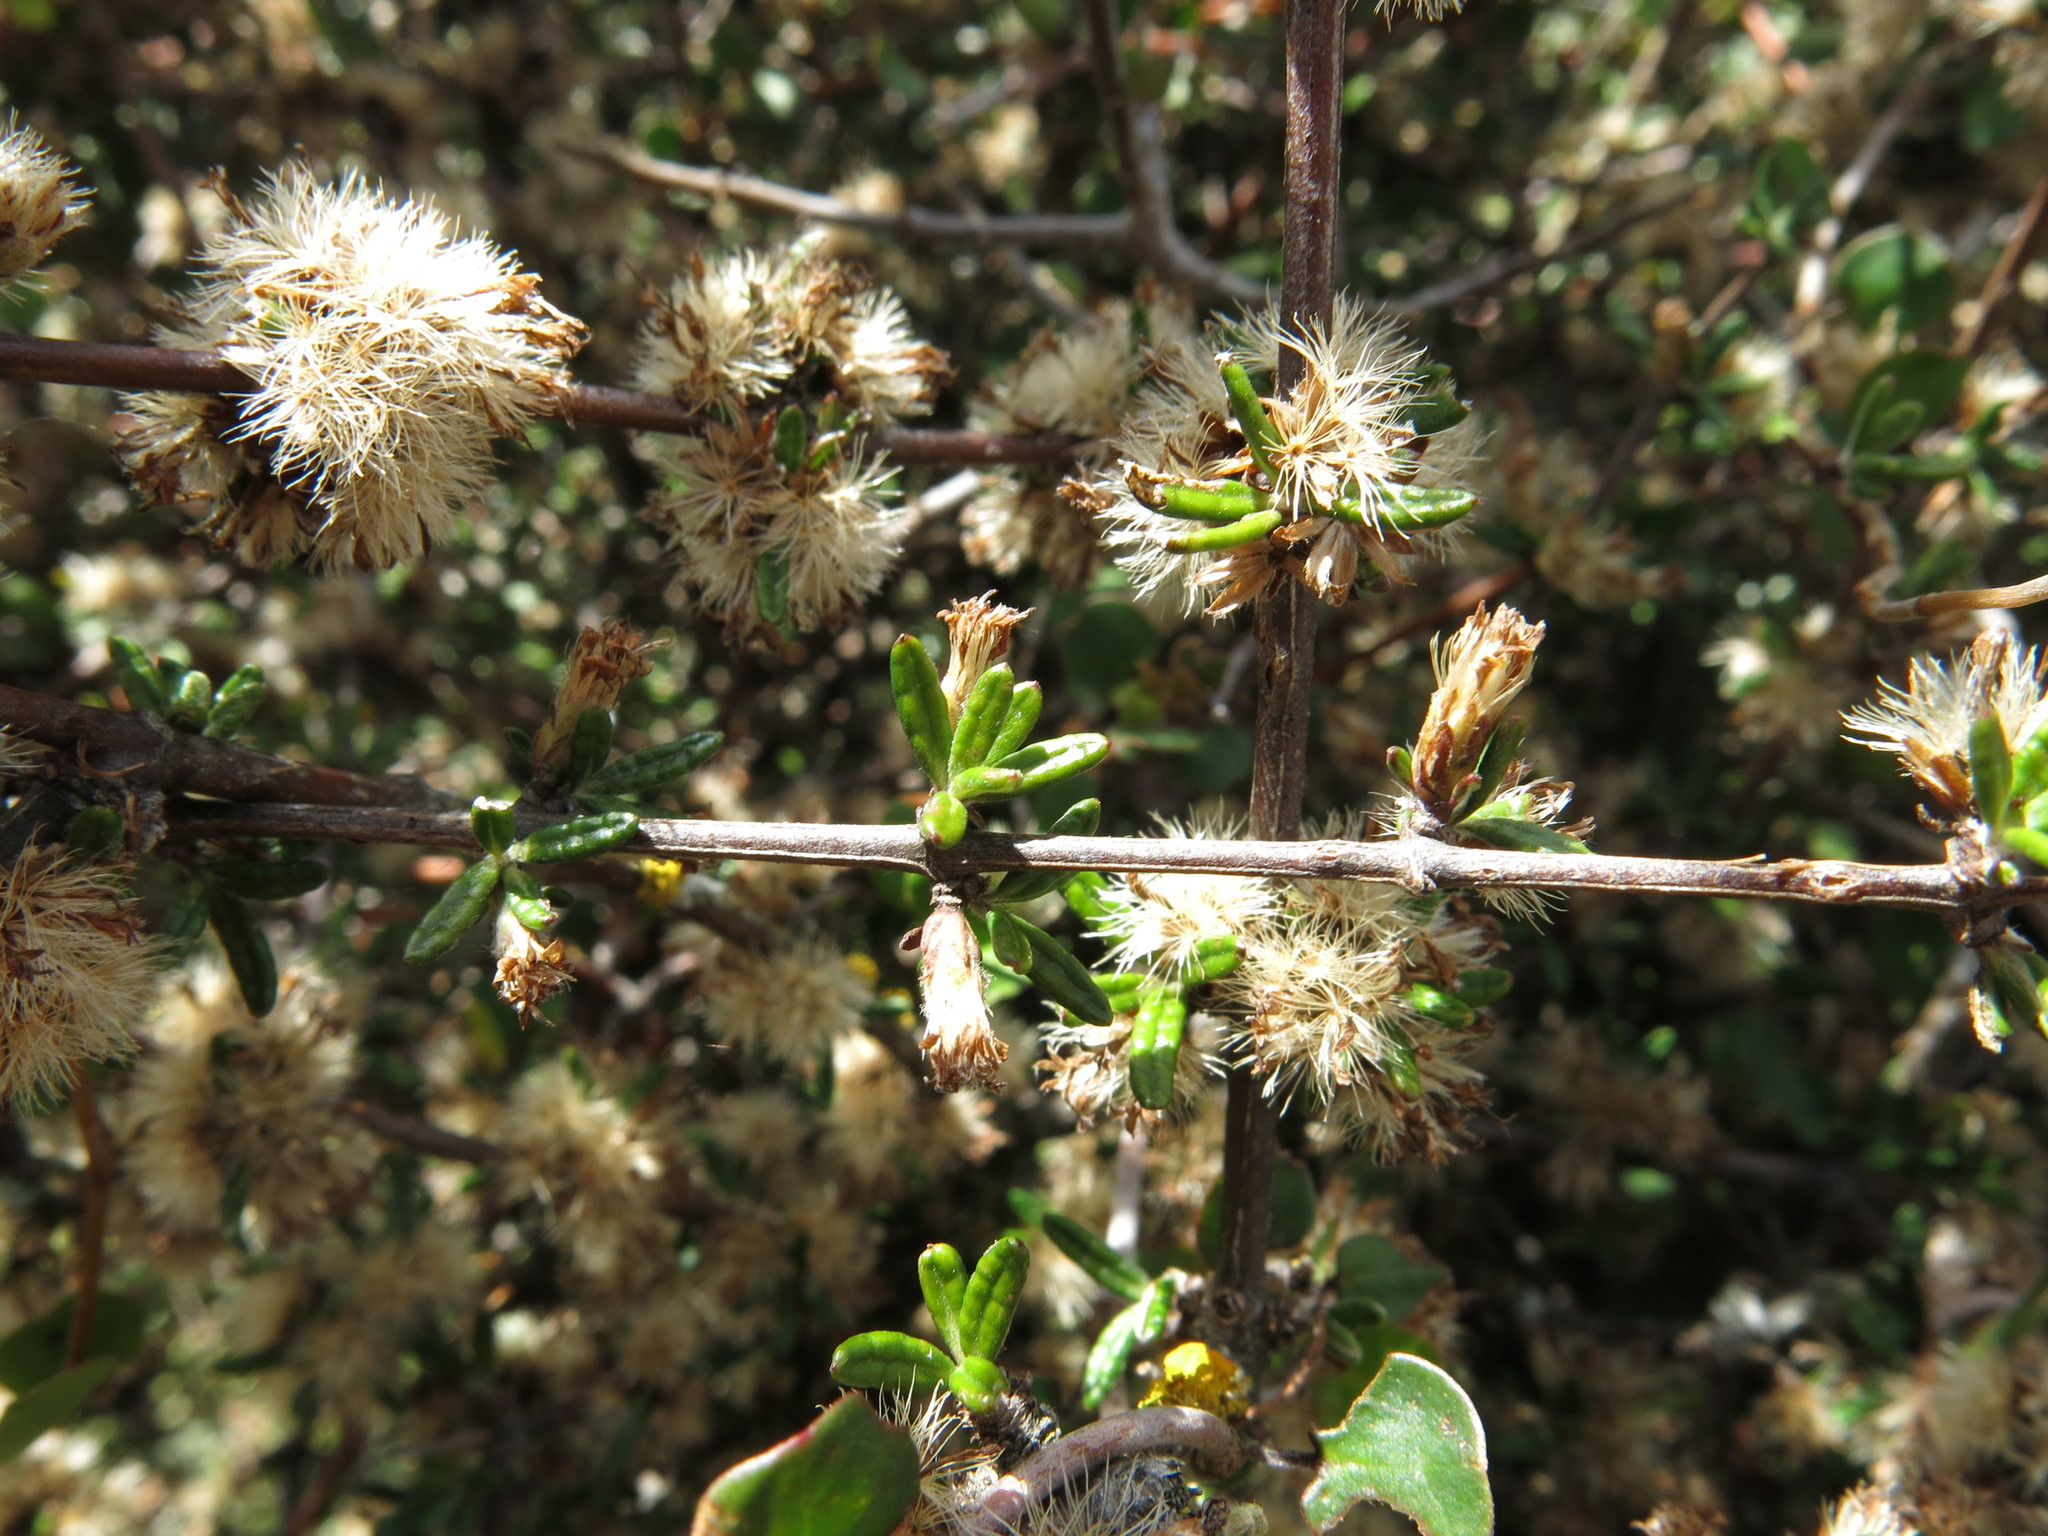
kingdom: Plantae
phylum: Tracheophyta
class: Magnoliopsida
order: Asterales
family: Asteraceae
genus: Olearia
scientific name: Olearia bullata
